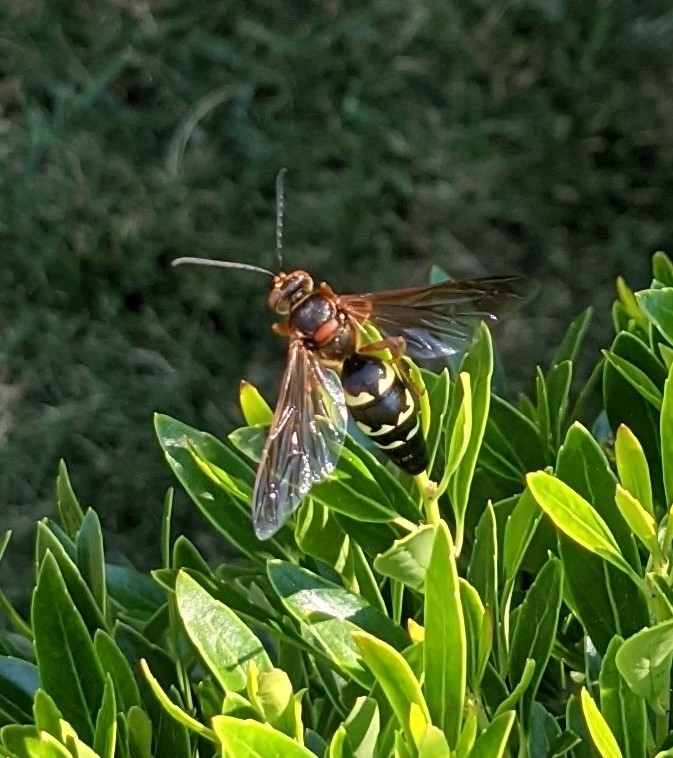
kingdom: Animalia
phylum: Arthropoda
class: Insecta
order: Hymenoptera
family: Crabronidae
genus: Sphecius
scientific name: Sphecius speciosus
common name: Cicada killer
